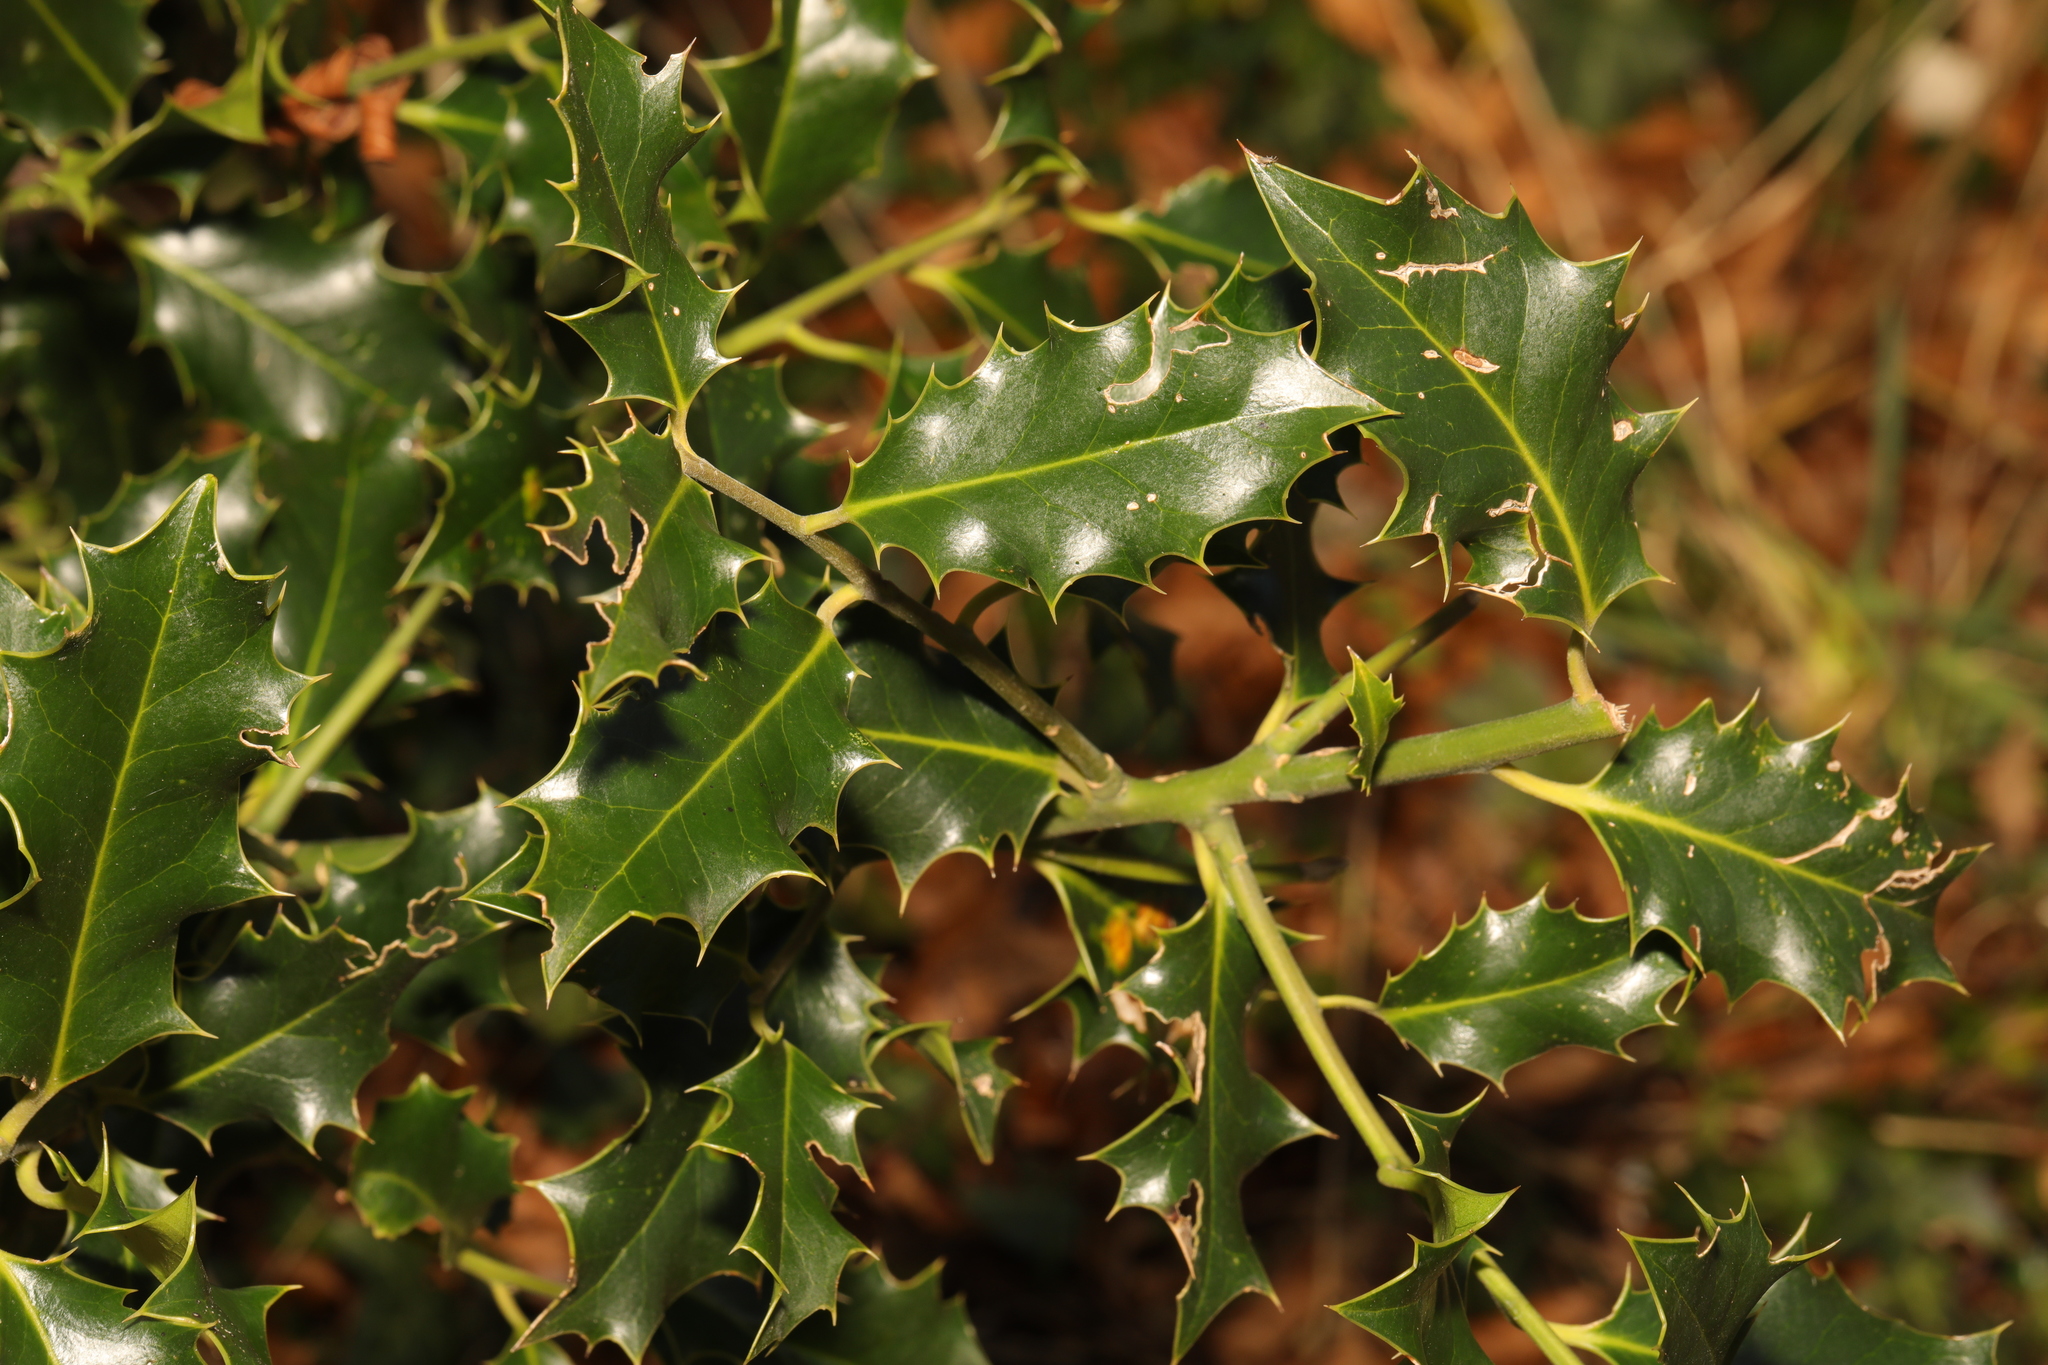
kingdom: Plantae
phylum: Tracheophyta
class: Magnoliopsida
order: Aquifoliales
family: Aquifoliaceae
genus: Ilex
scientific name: Ilex aquifolium
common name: English holly
